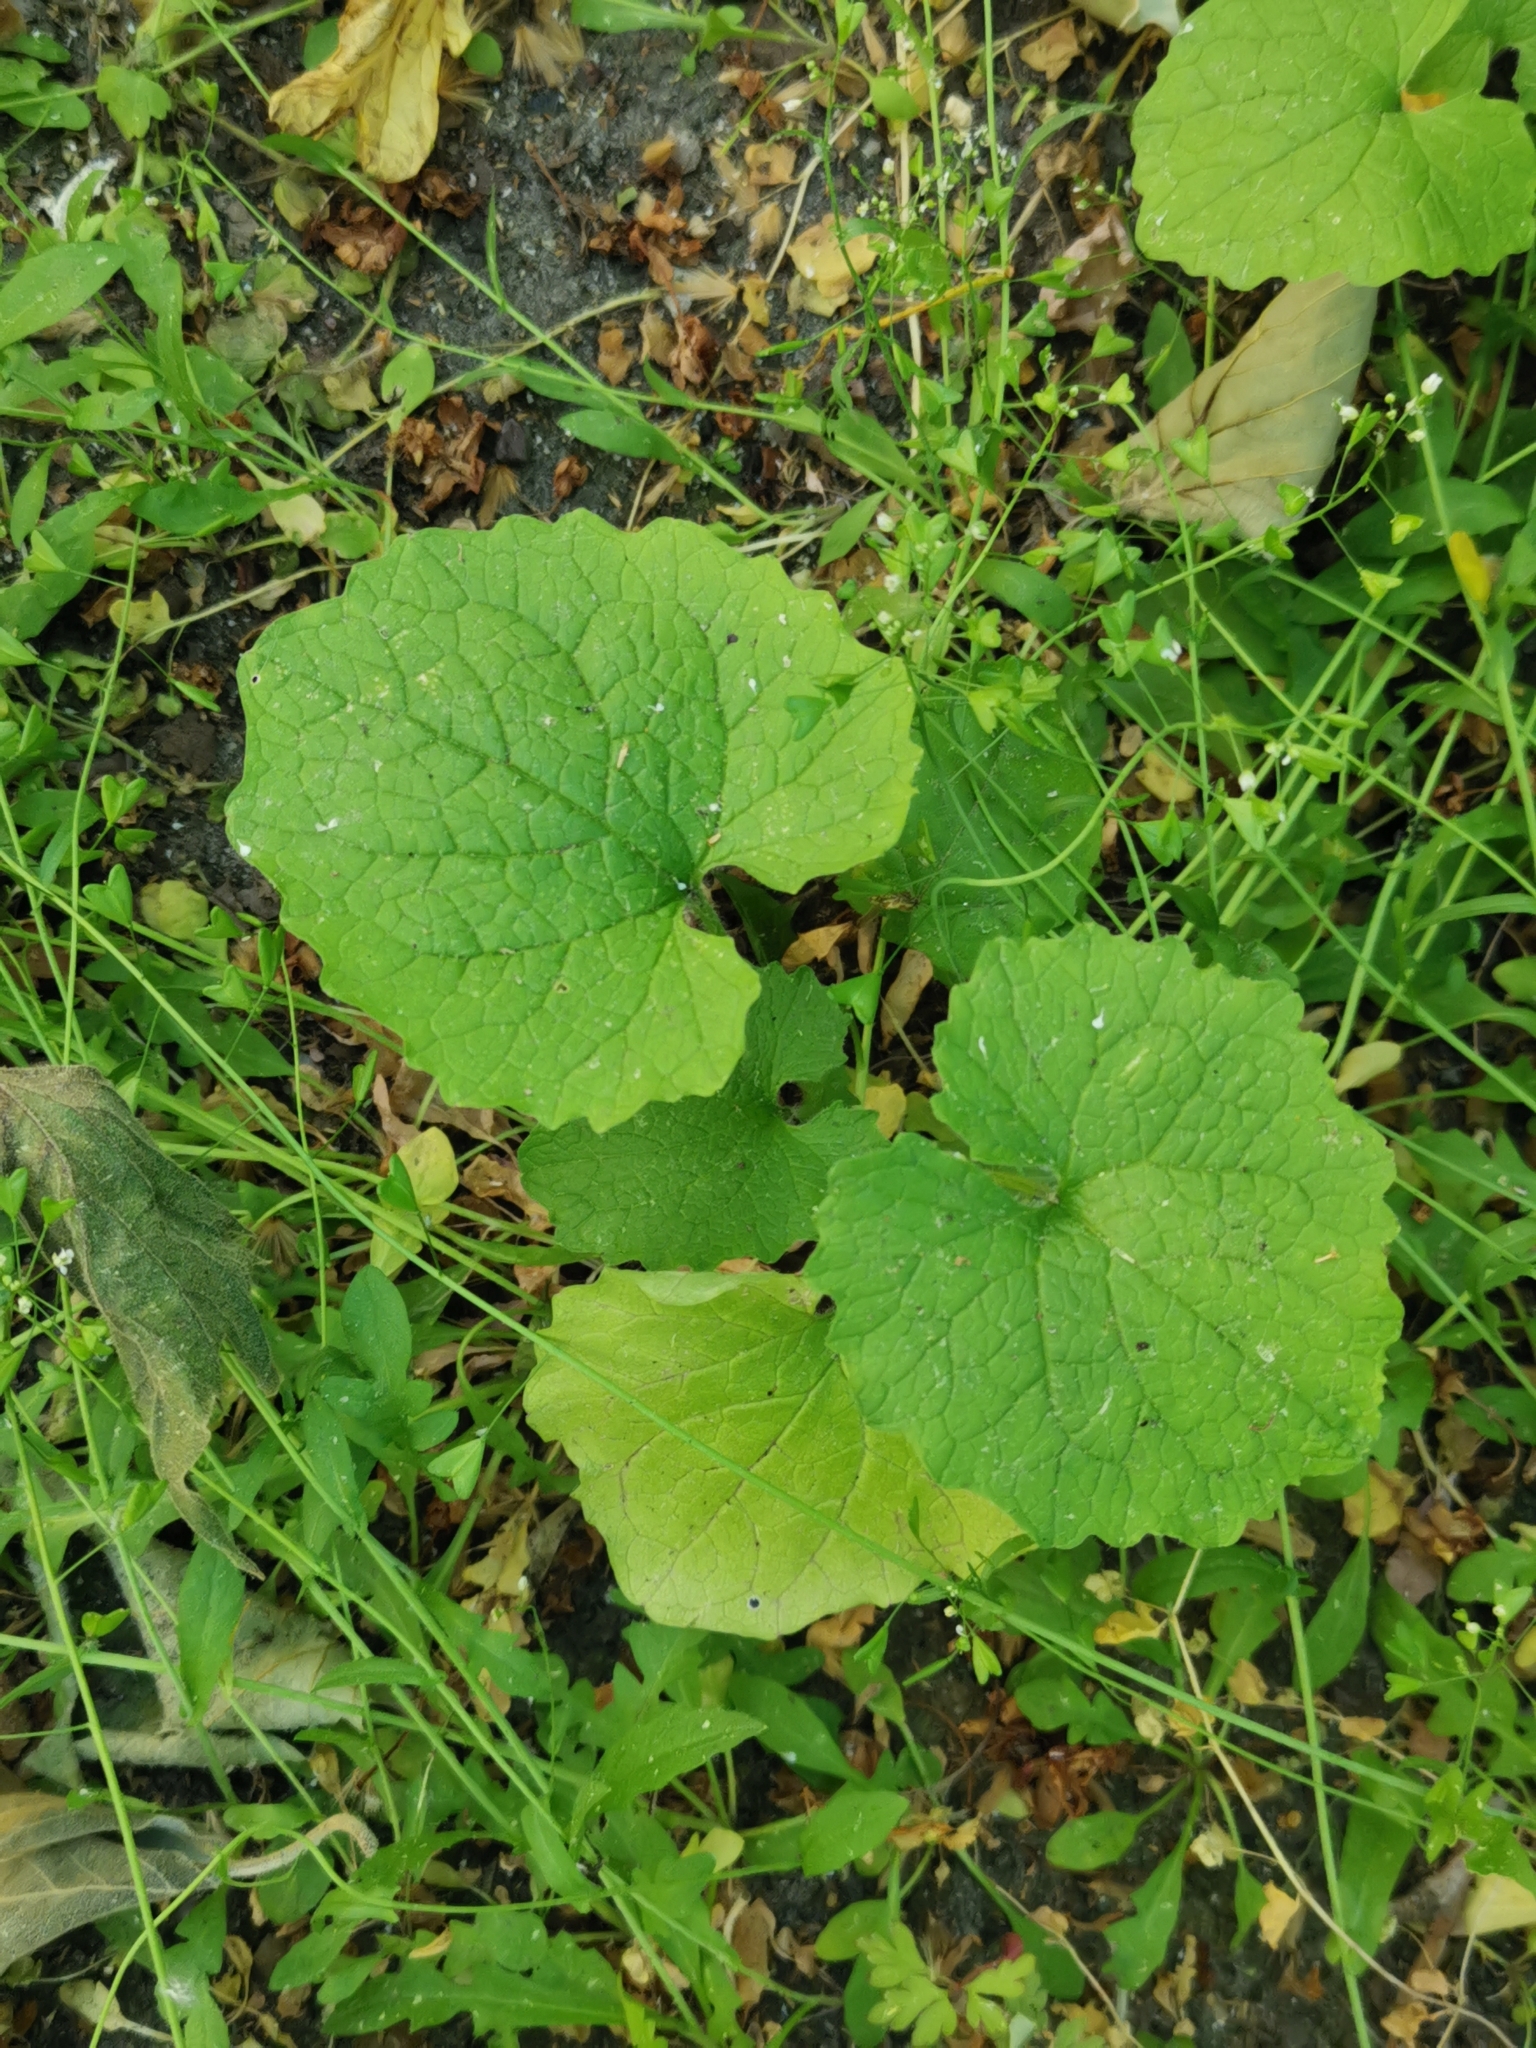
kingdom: Plantae
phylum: Tracheophyta
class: Magnoliopsida
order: Brassicales
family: Brassicaceae
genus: Alliaria
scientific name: Alliaria petiolata
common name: Garlic mustard
